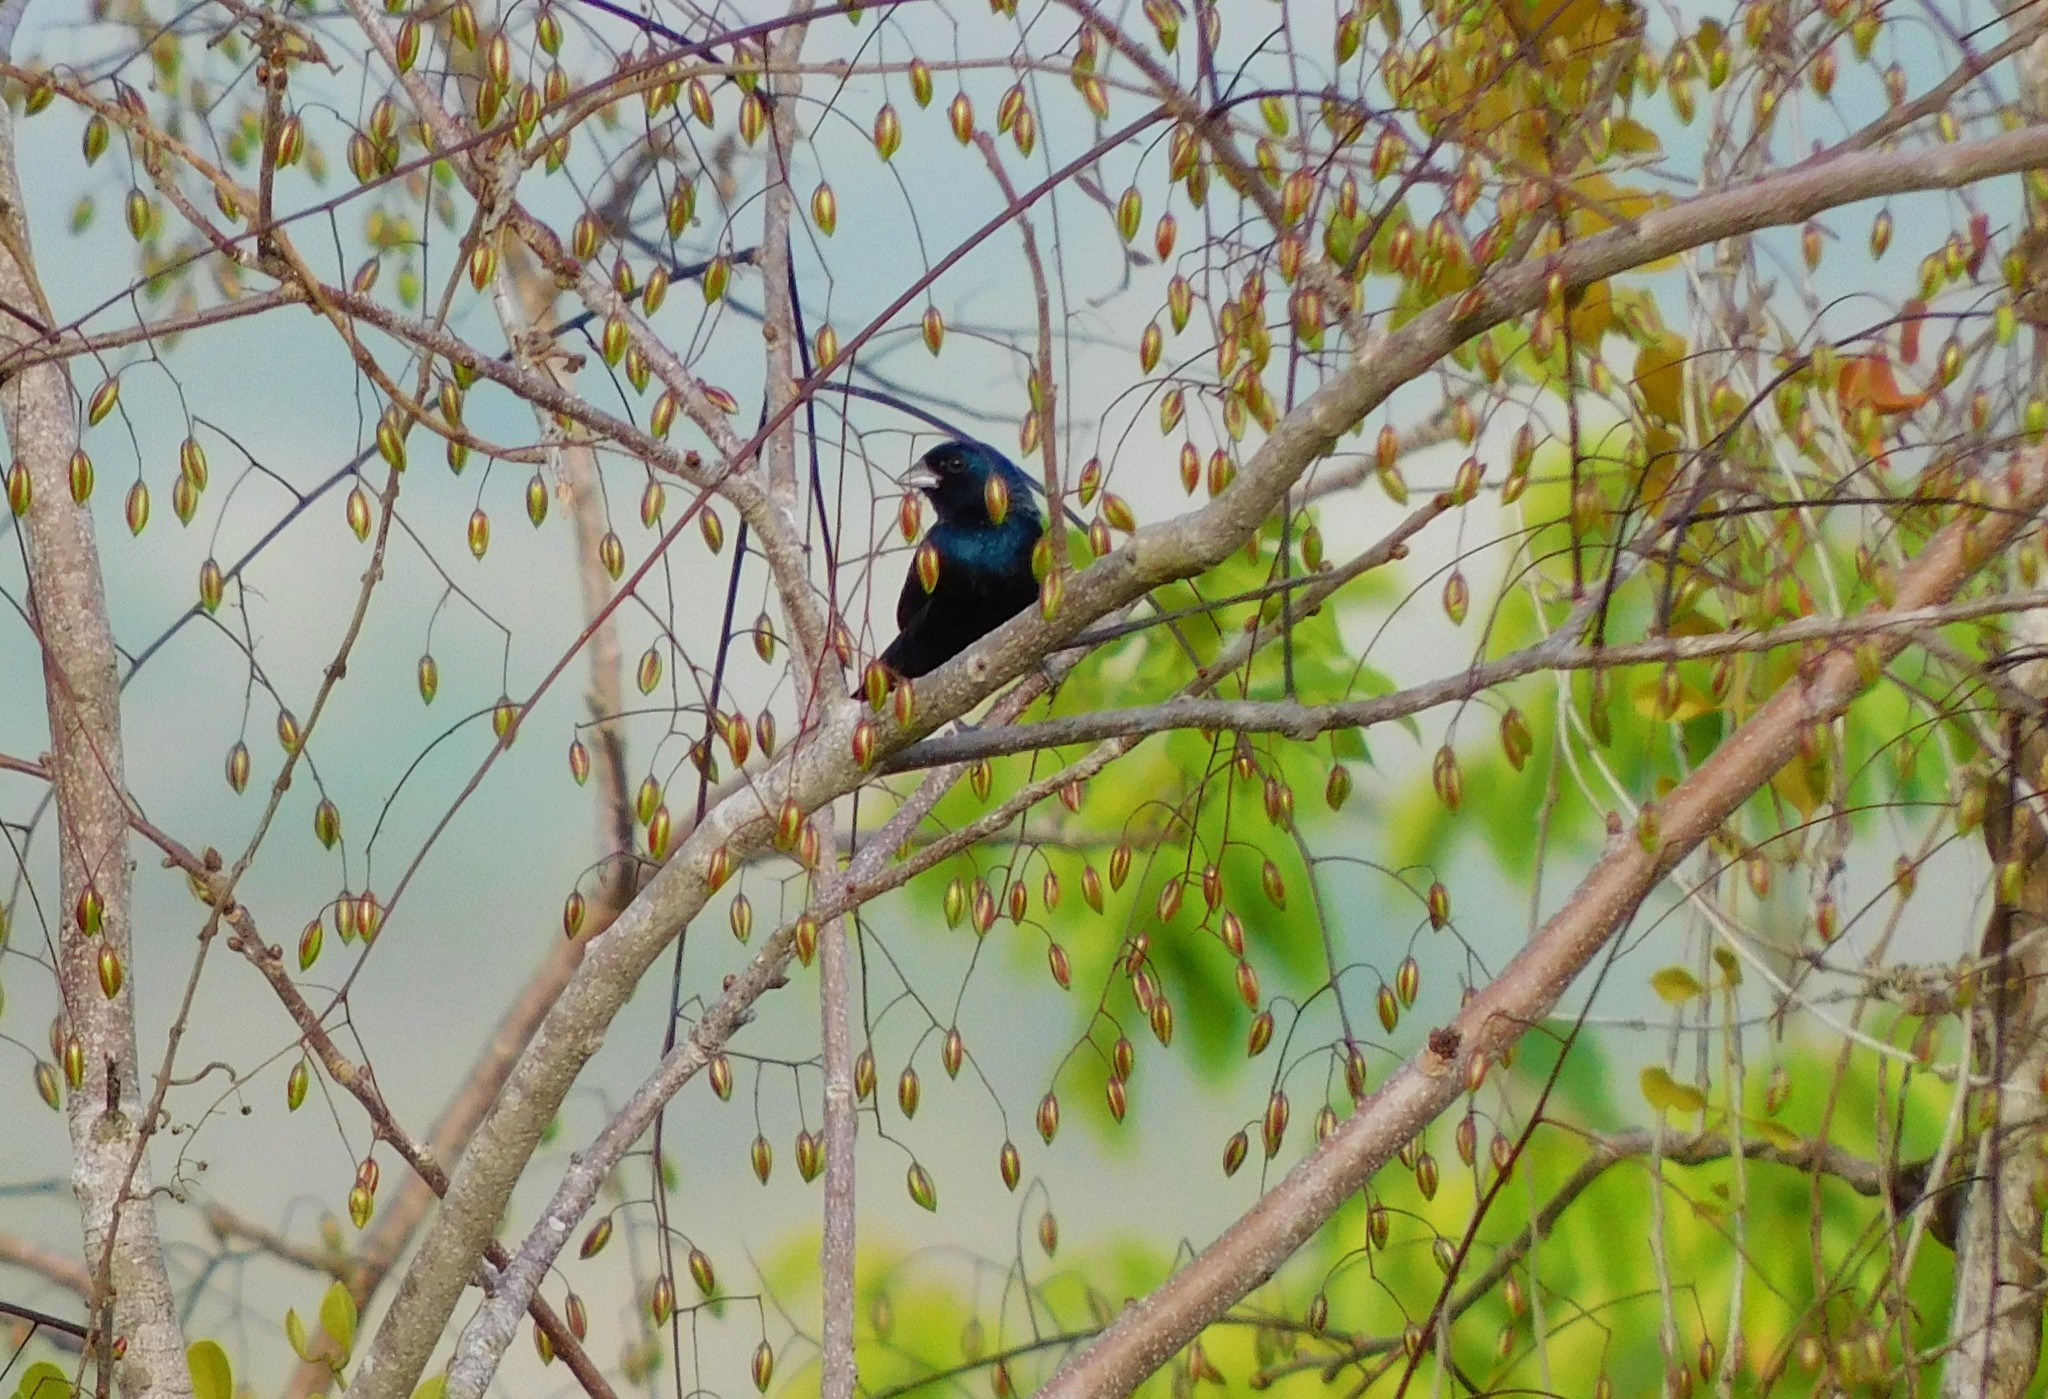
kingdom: Animalia
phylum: Chordata
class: Aves
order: Passeriformes
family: Thraupidae
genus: Volatinia
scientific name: Volatinia jacarina
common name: Blue-black grassquit
